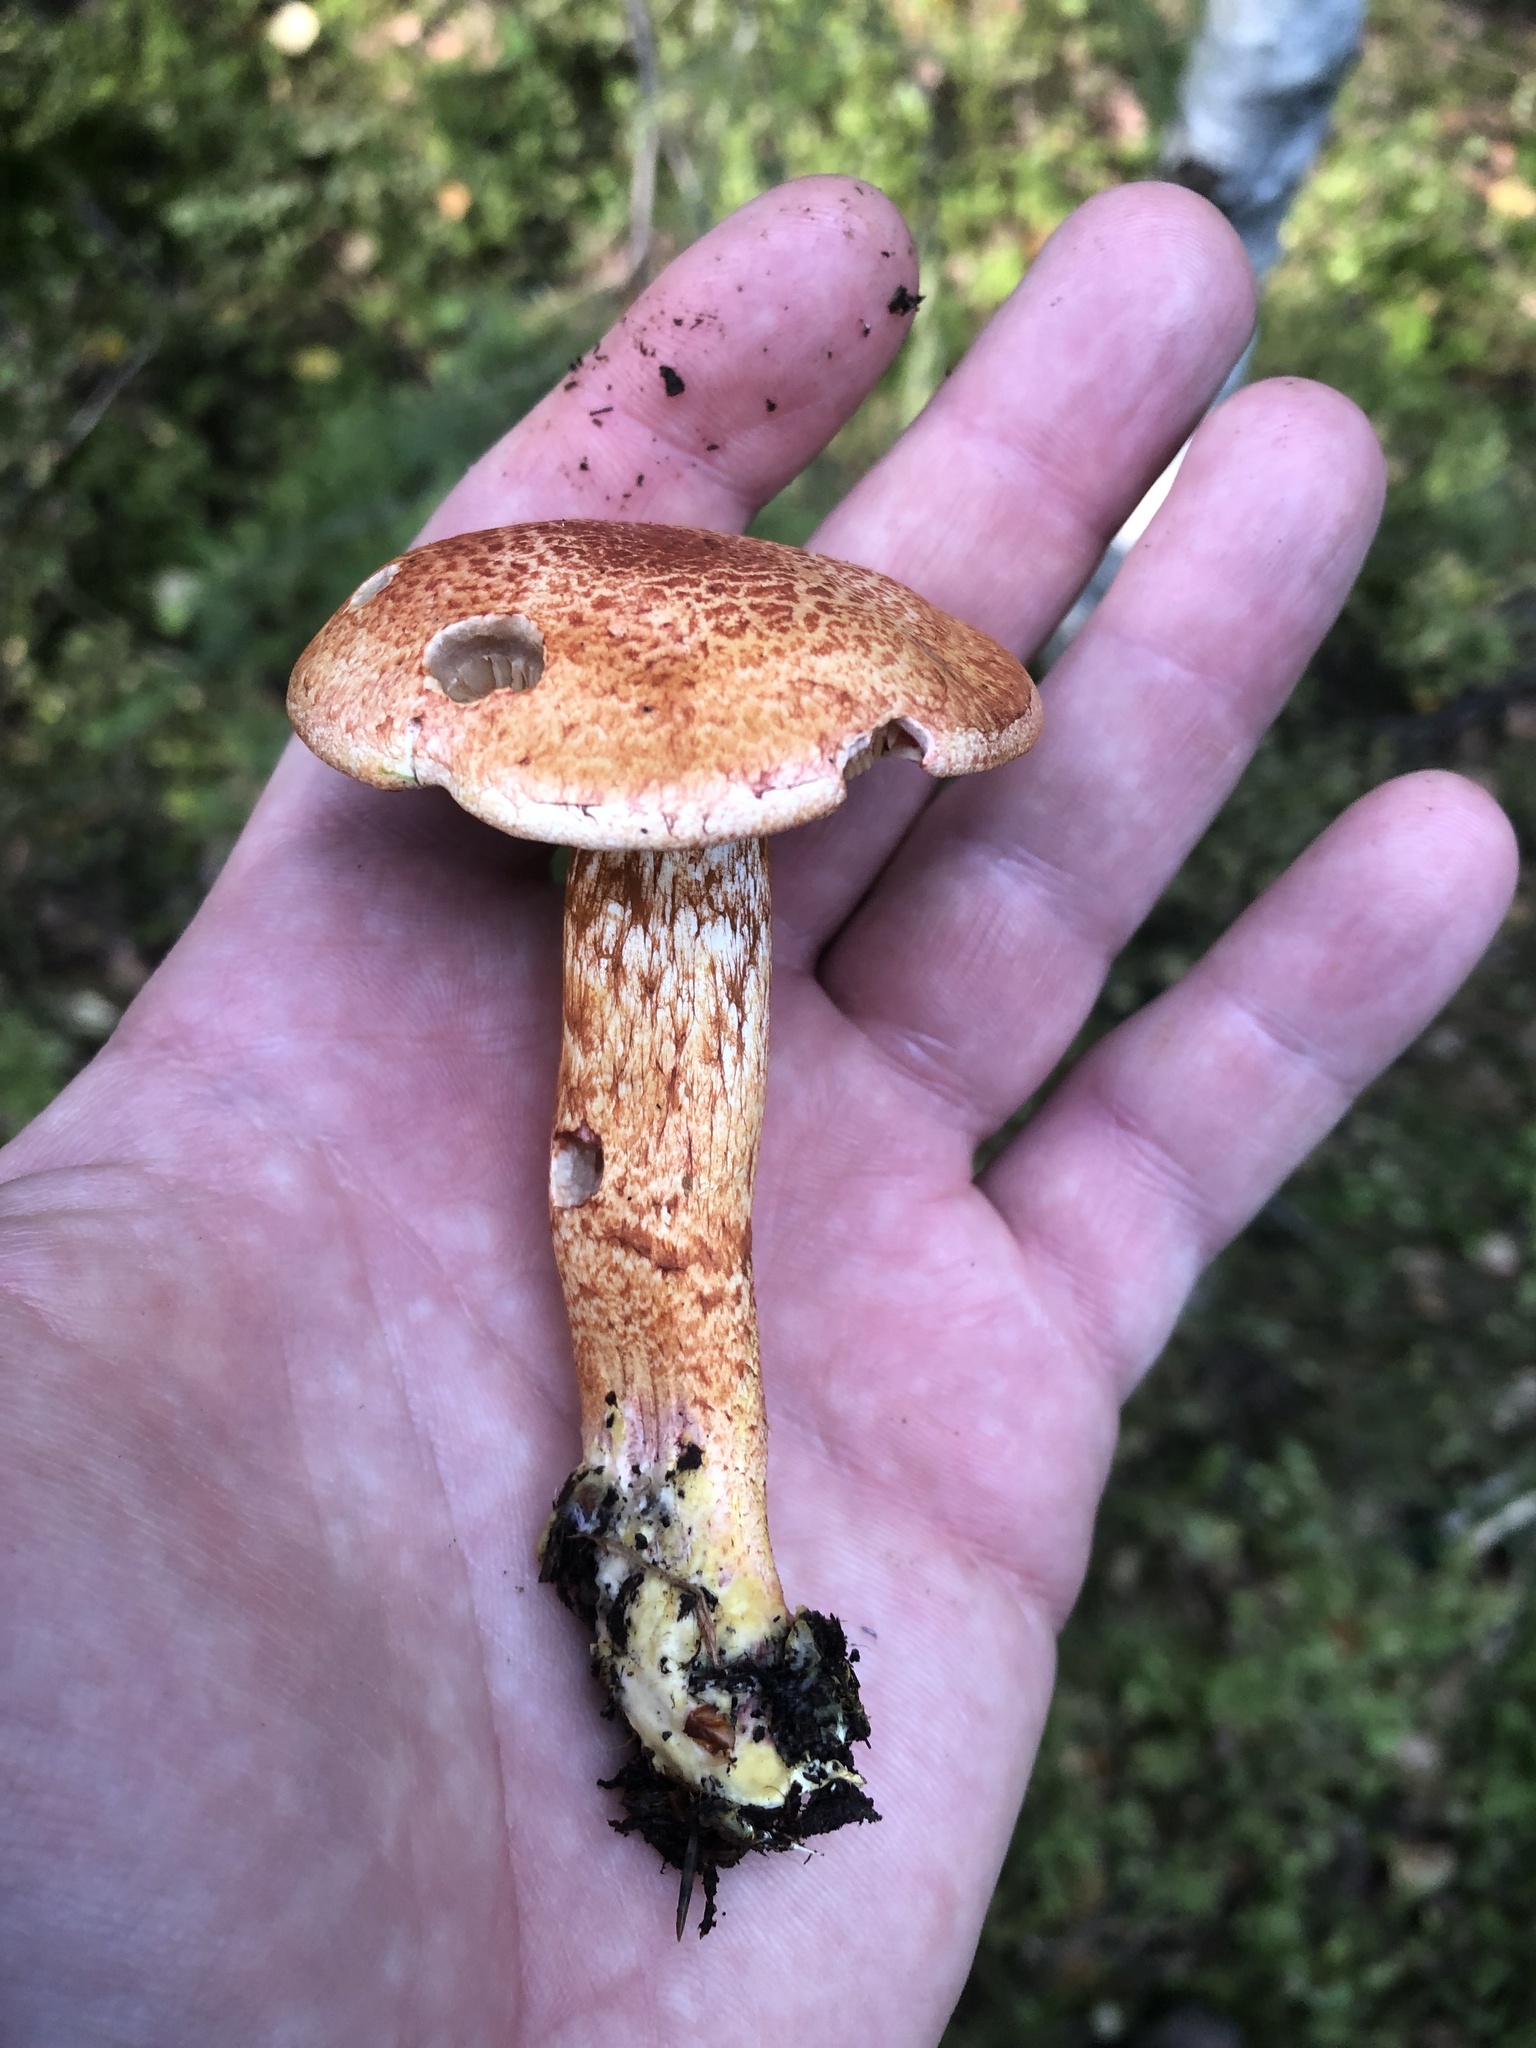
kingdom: Fungi
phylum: Basidiomycota
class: Agaricomycetes
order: Agaricales
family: Cortinariaceae
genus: Cortinarius
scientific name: Cortinarius bolaris
